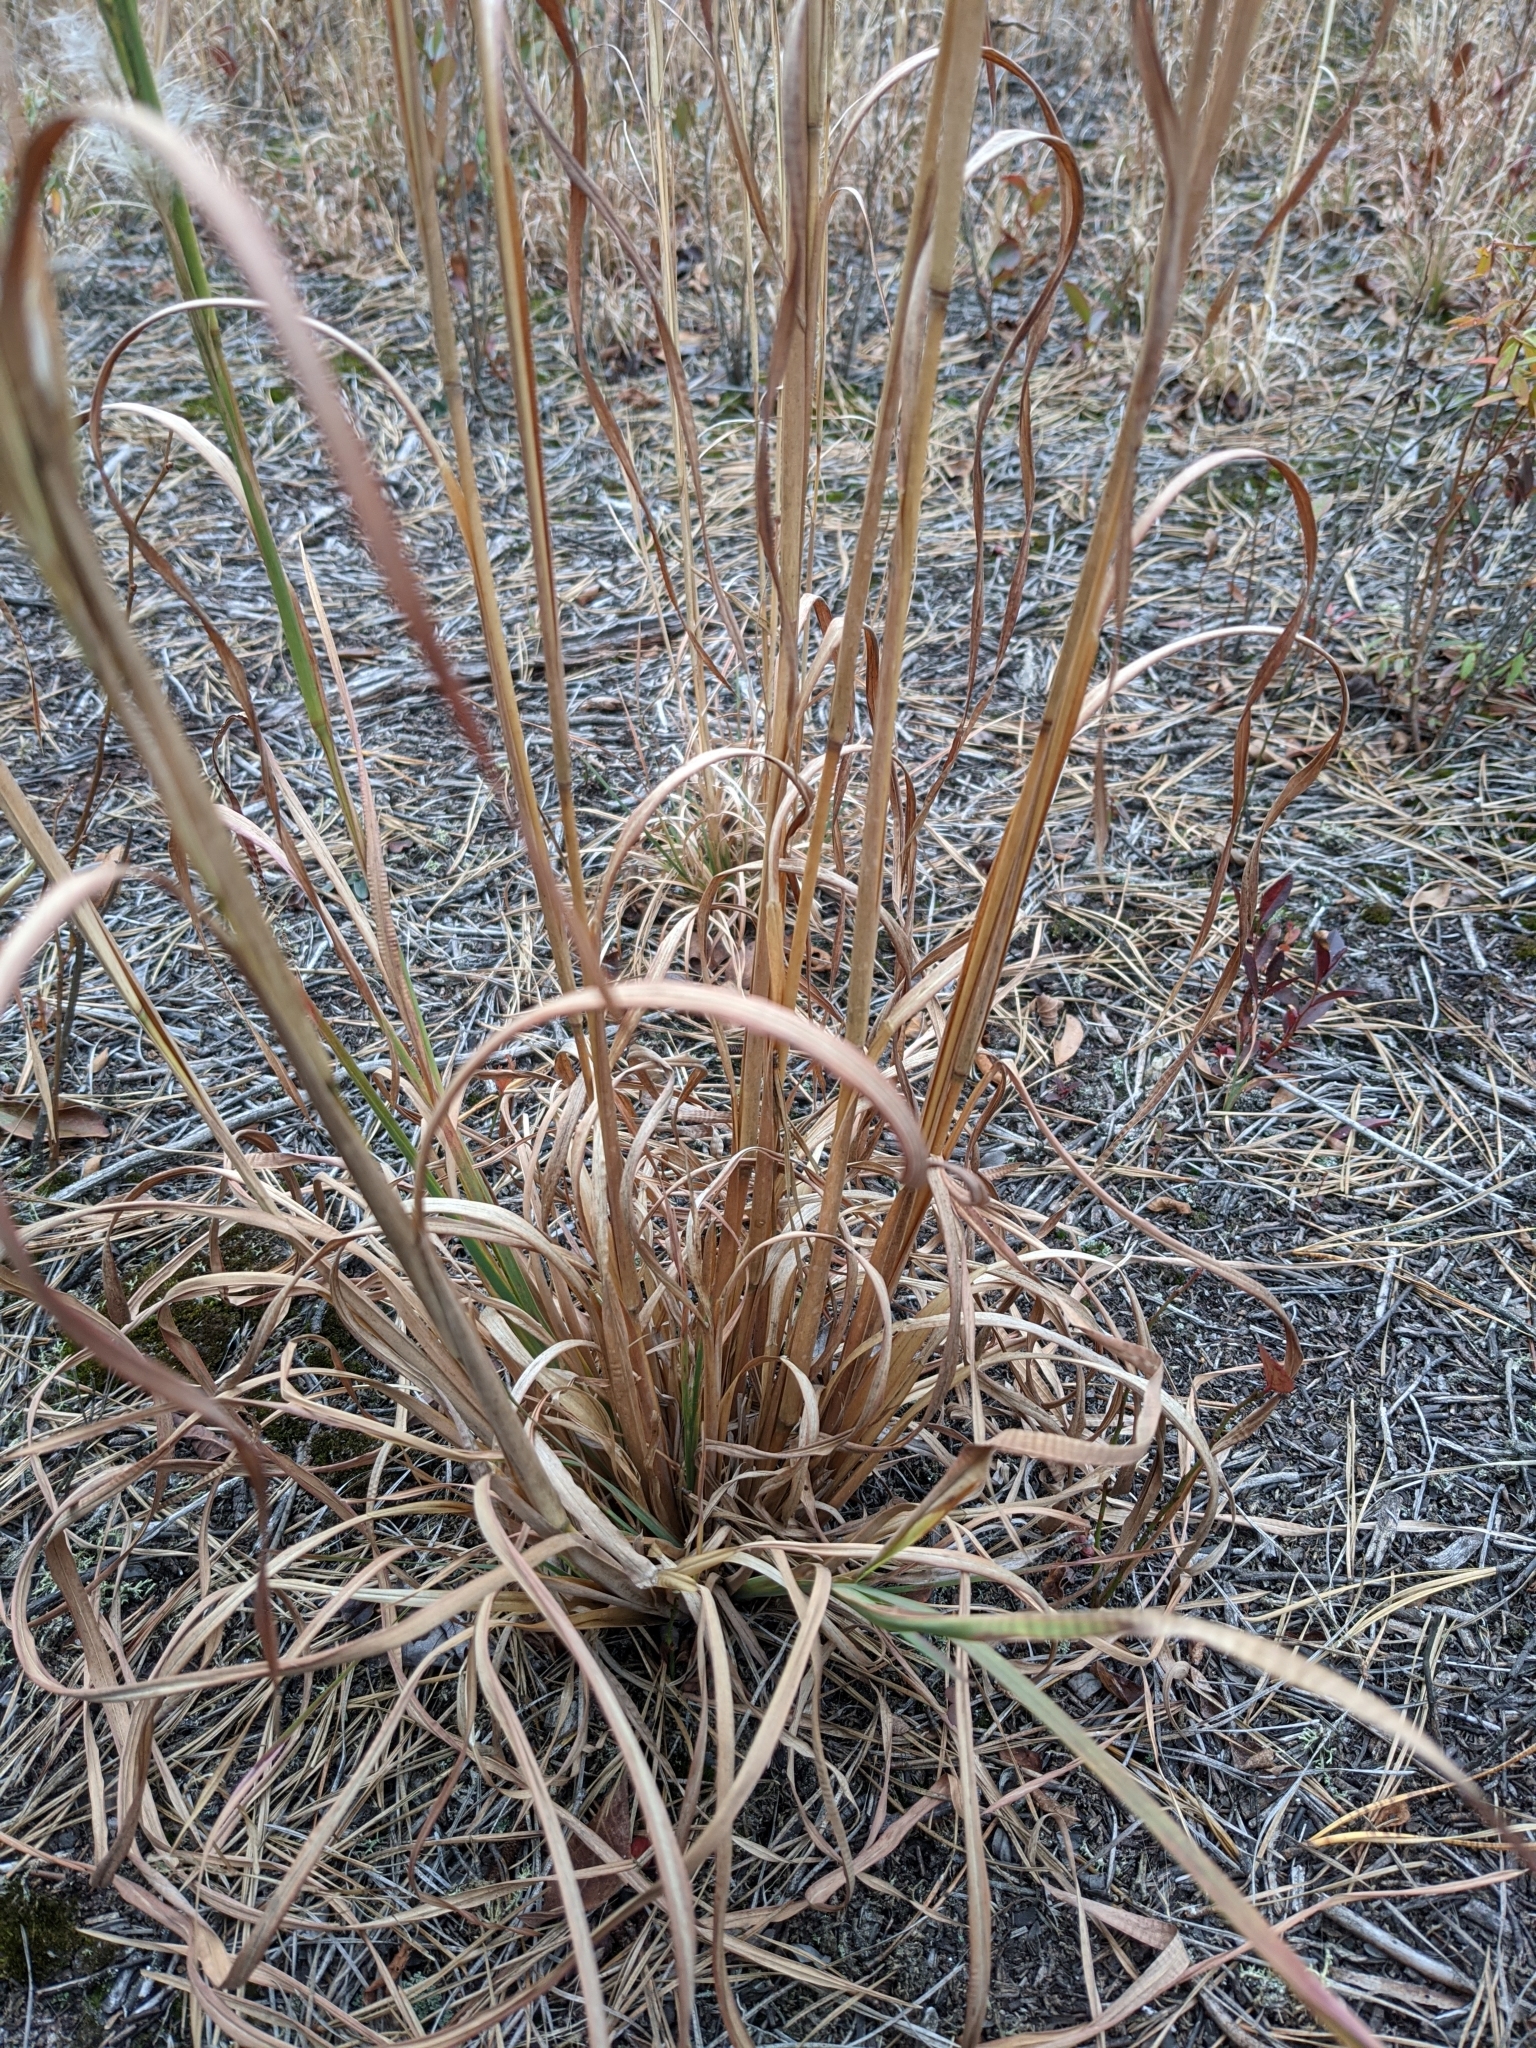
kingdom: Plantae
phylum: Tracheophyta
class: Liliopsida
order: Poales
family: Poaceae
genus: Andropogon
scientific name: Andropogon glomeratus
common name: Bushy beard grass
